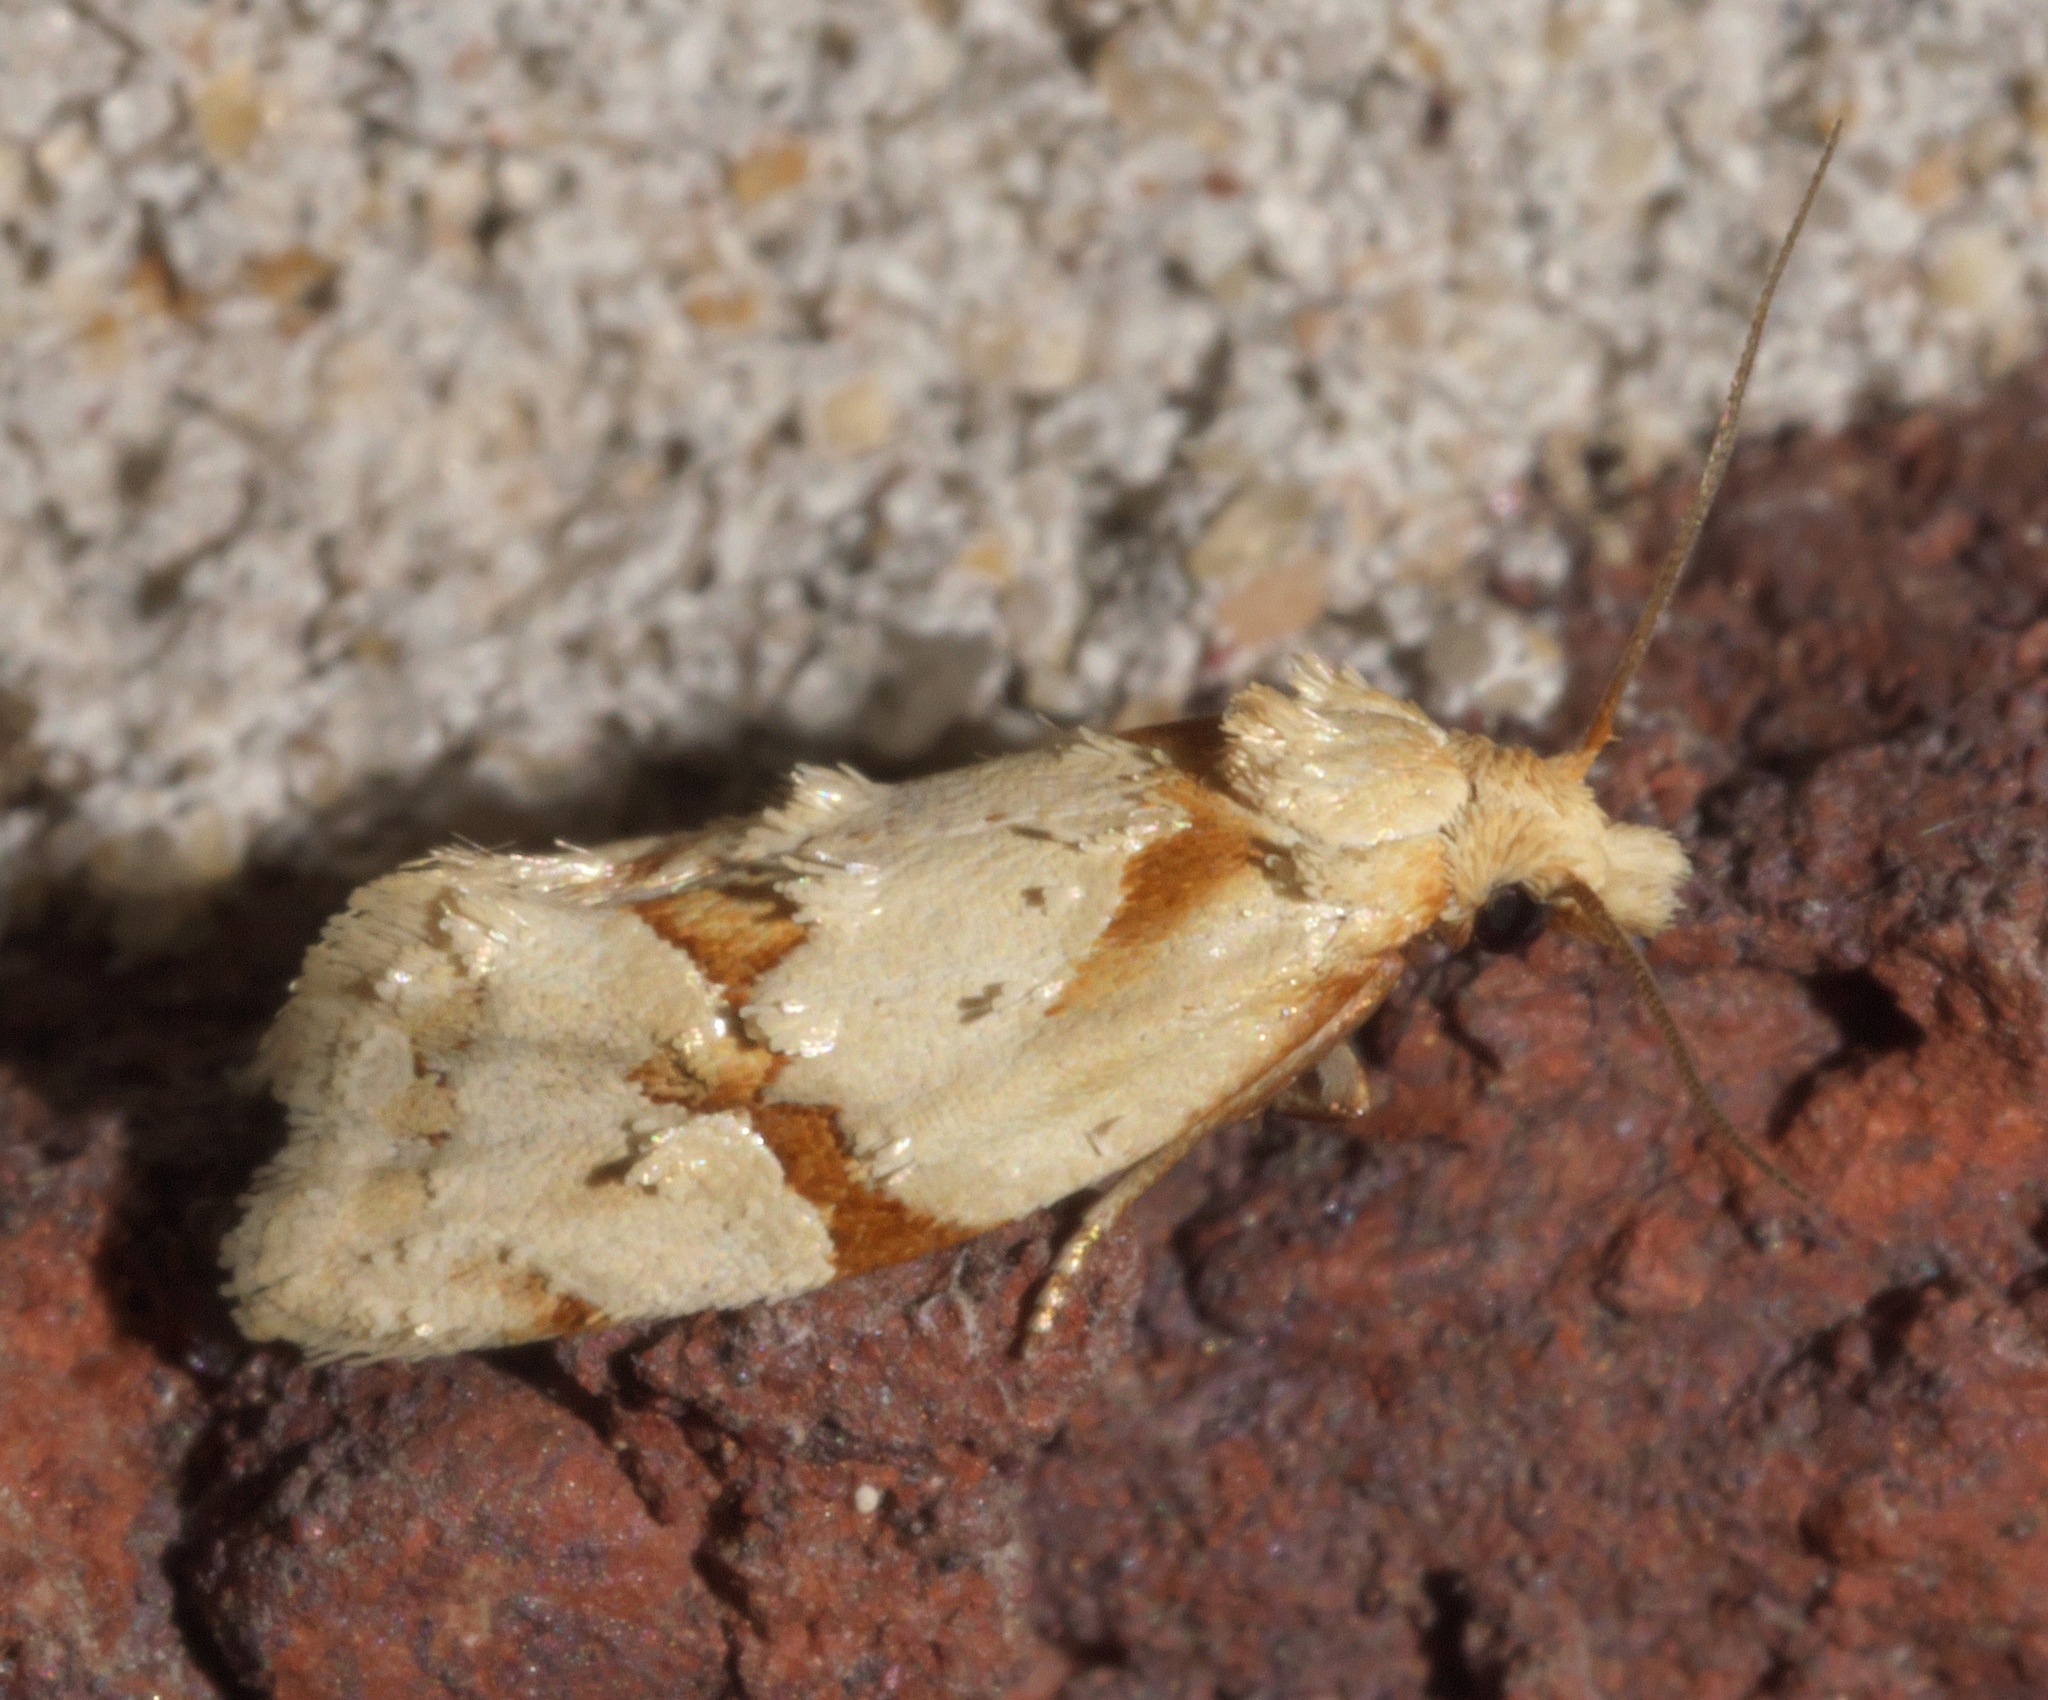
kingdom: Animalia
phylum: Arthropoda
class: Insecta
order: Lepidoptera
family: Tortricidae
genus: Aethes
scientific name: Aethes baloghi
